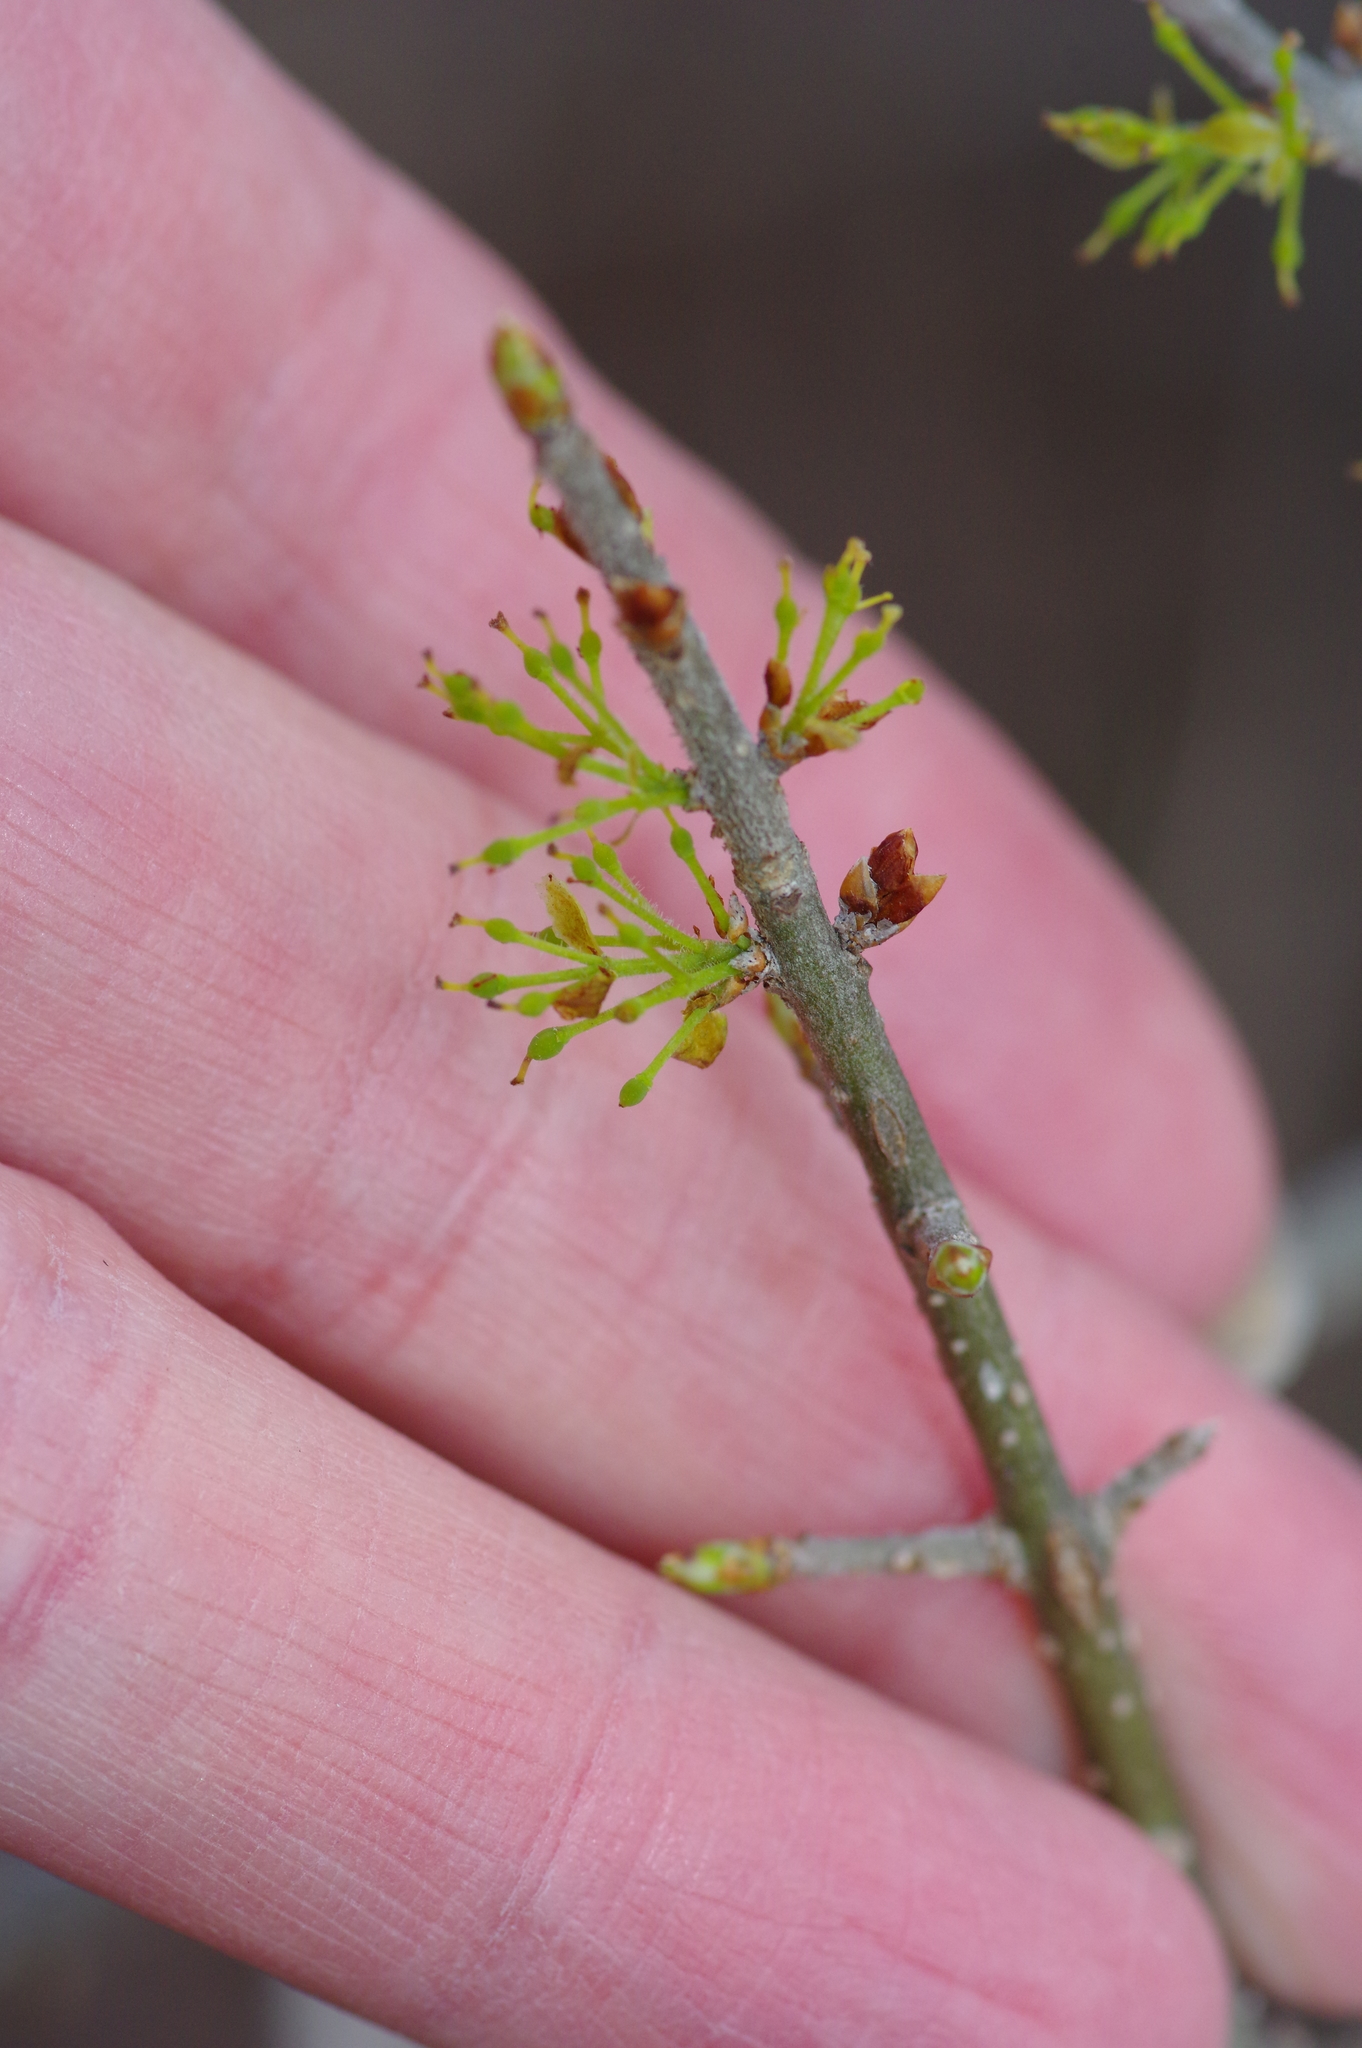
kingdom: Plantae
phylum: Tracheophyta
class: Magnoliopsida
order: Lamiales
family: Oleaceae
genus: Forestiera
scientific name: Forestiera pubescens
